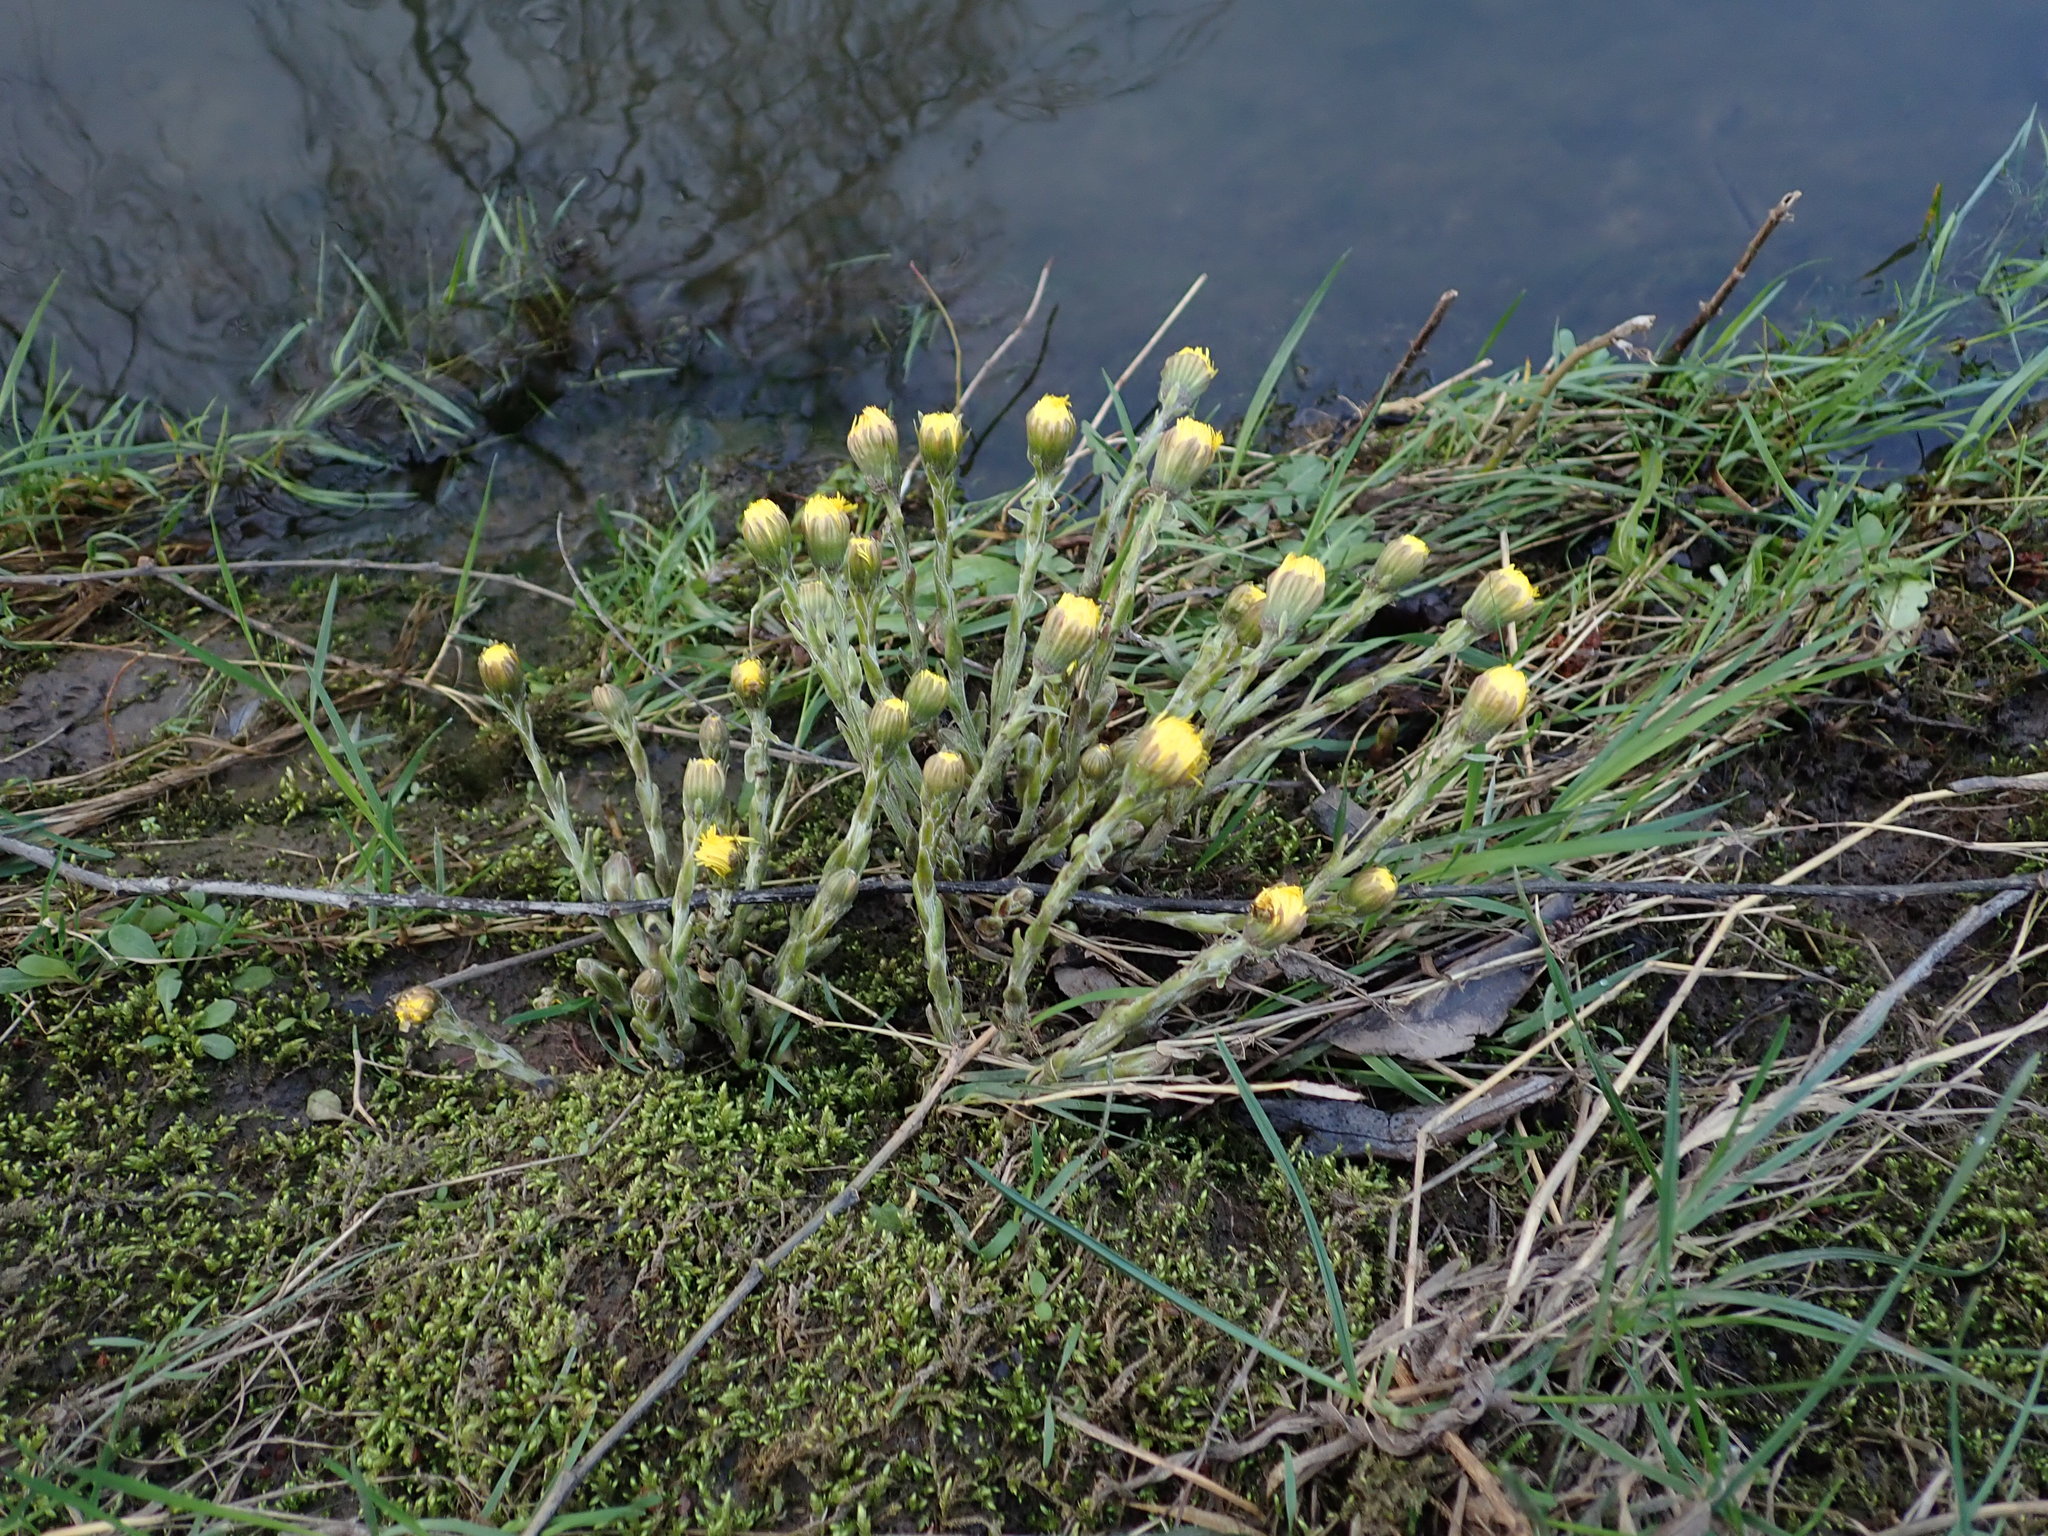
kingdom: Plantae
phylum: Tracheophyta
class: Magnoliopsida
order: Asterales
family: Asteraceae
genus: Tussilago
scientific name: Tussilago farfara
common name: Coltsfoot
